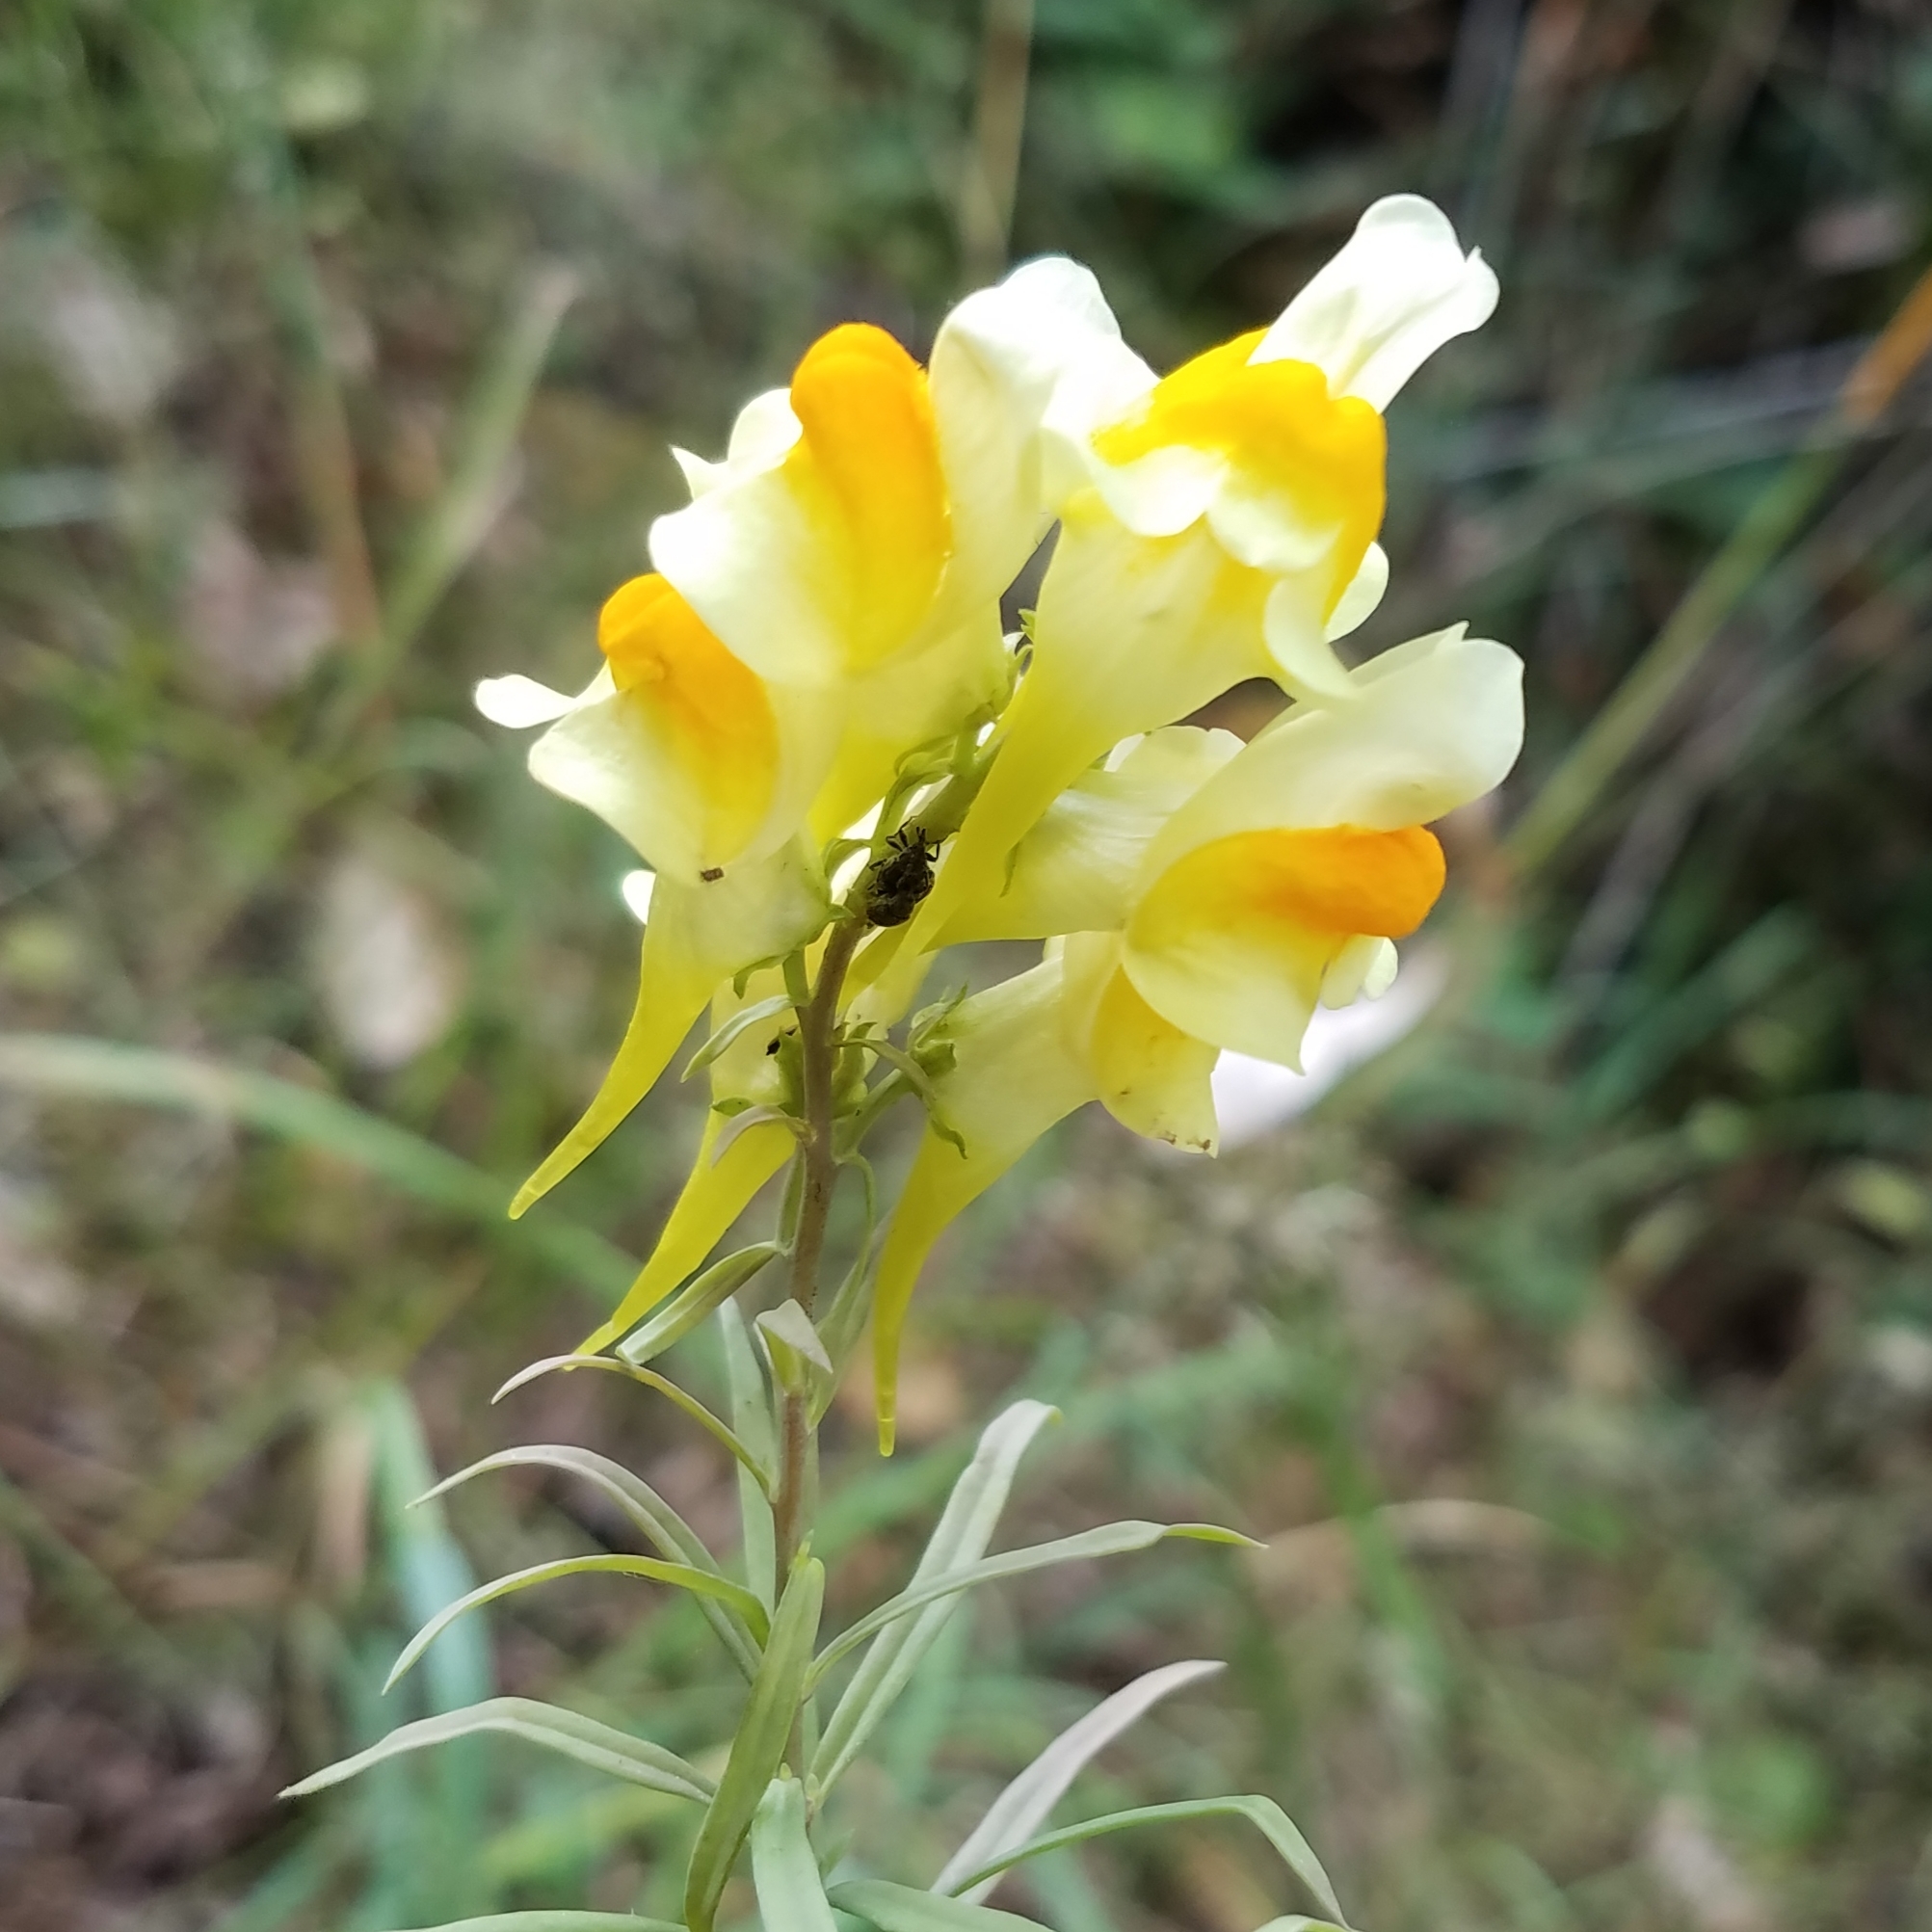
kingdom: Plantae
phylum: Tracheophyta
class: Magnoliopsida
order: Lamiales
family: Plantaginaceae
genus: Linaria
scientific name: Linaria vulgaris
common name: Butter and eggs
